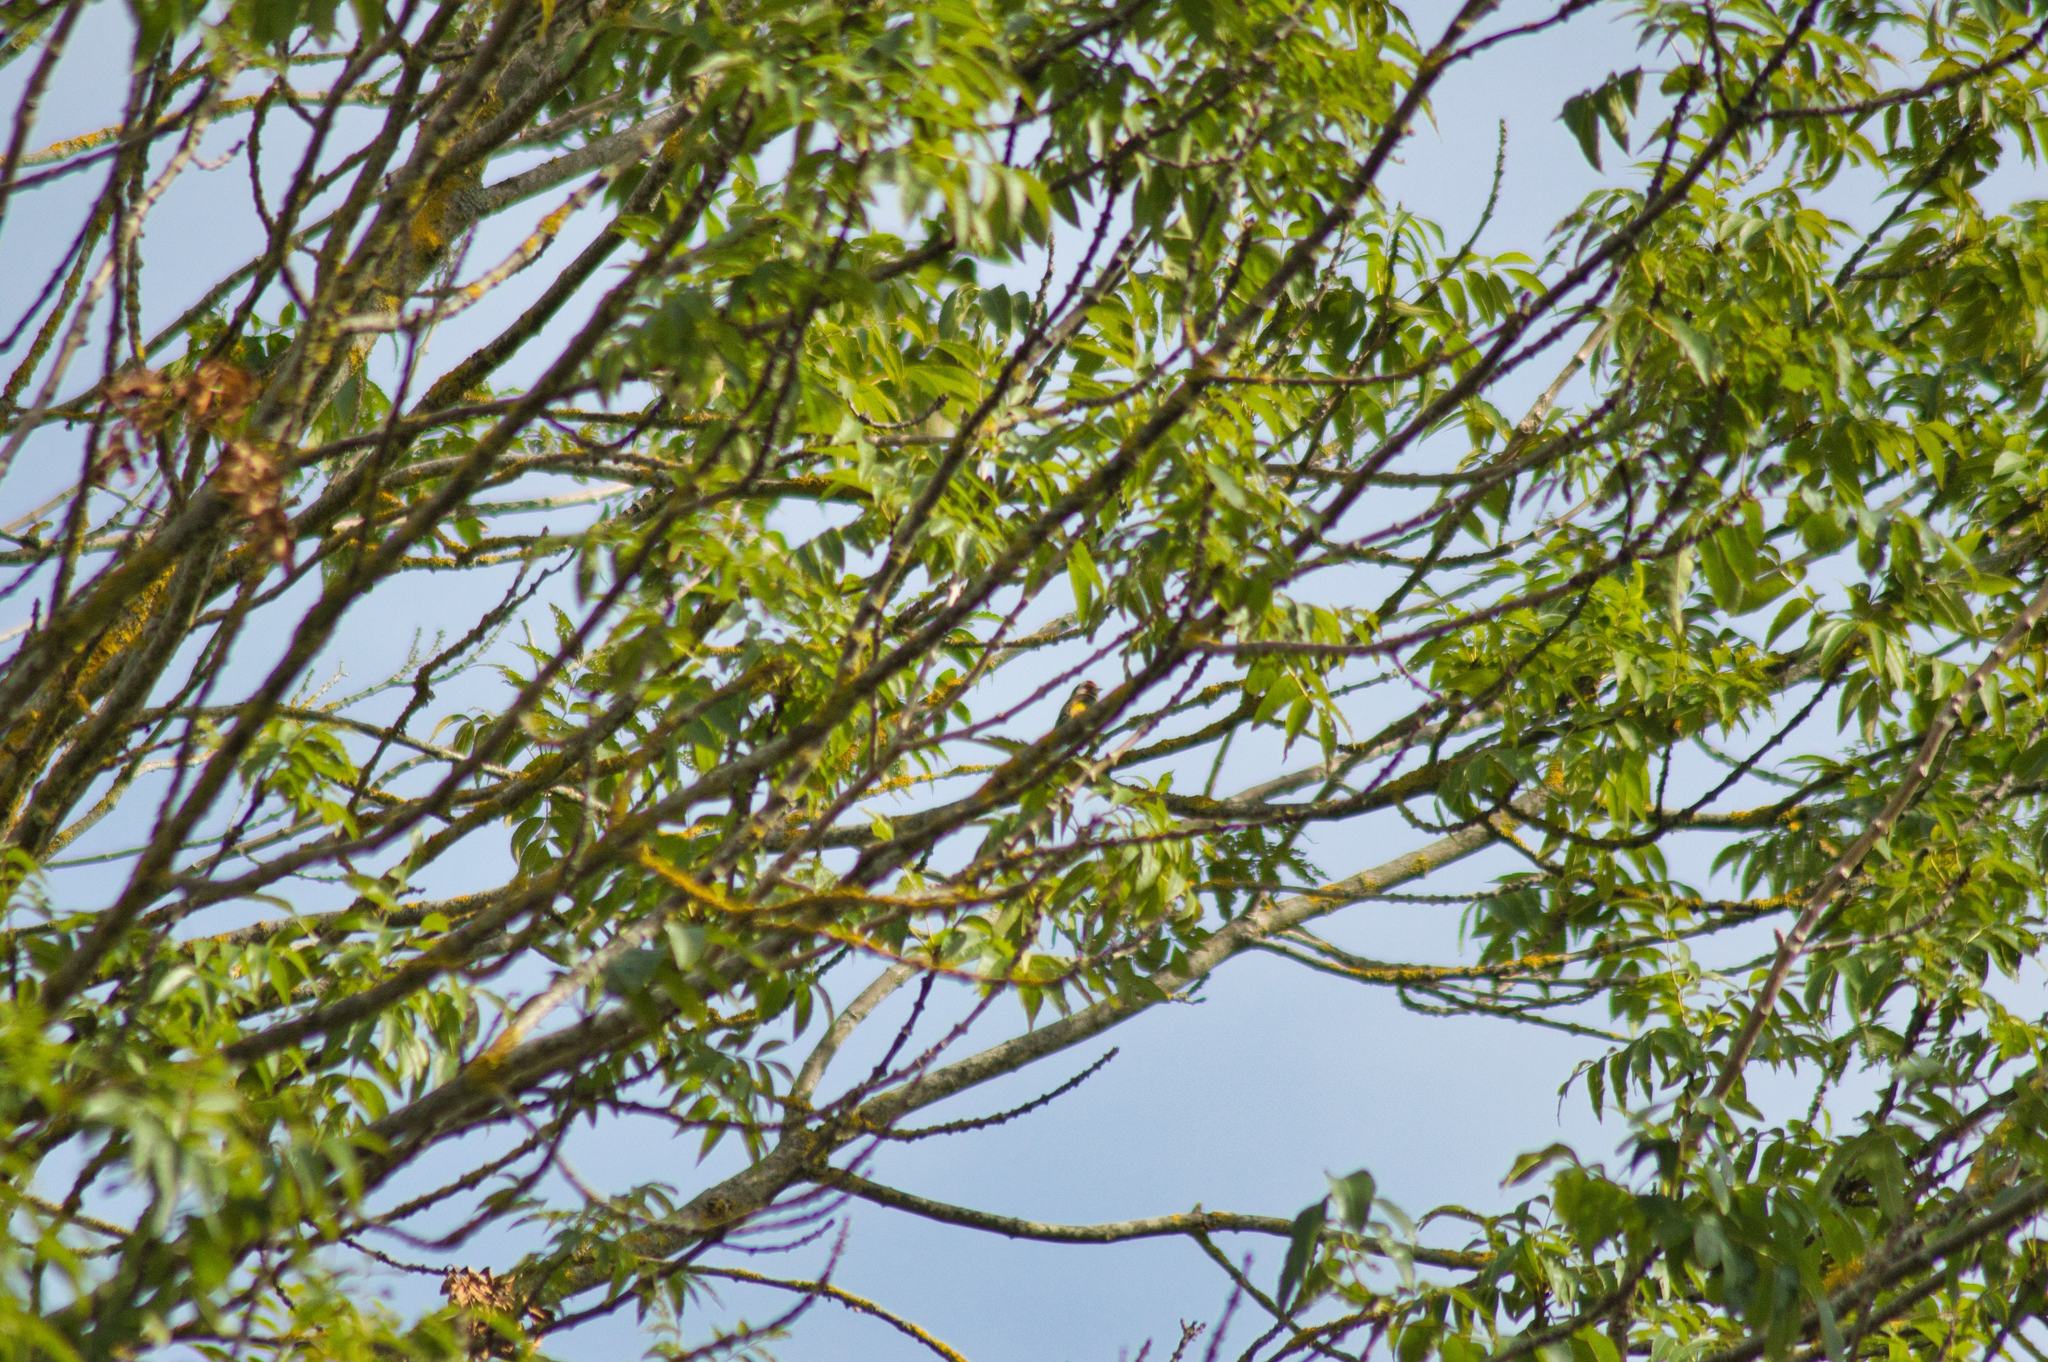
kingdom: Animalia
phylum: Chordata
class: Aves
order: Passeriformes
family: Fringillidae
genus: Carduelis
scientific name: Carduelis carduelis
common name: European goldfinch
